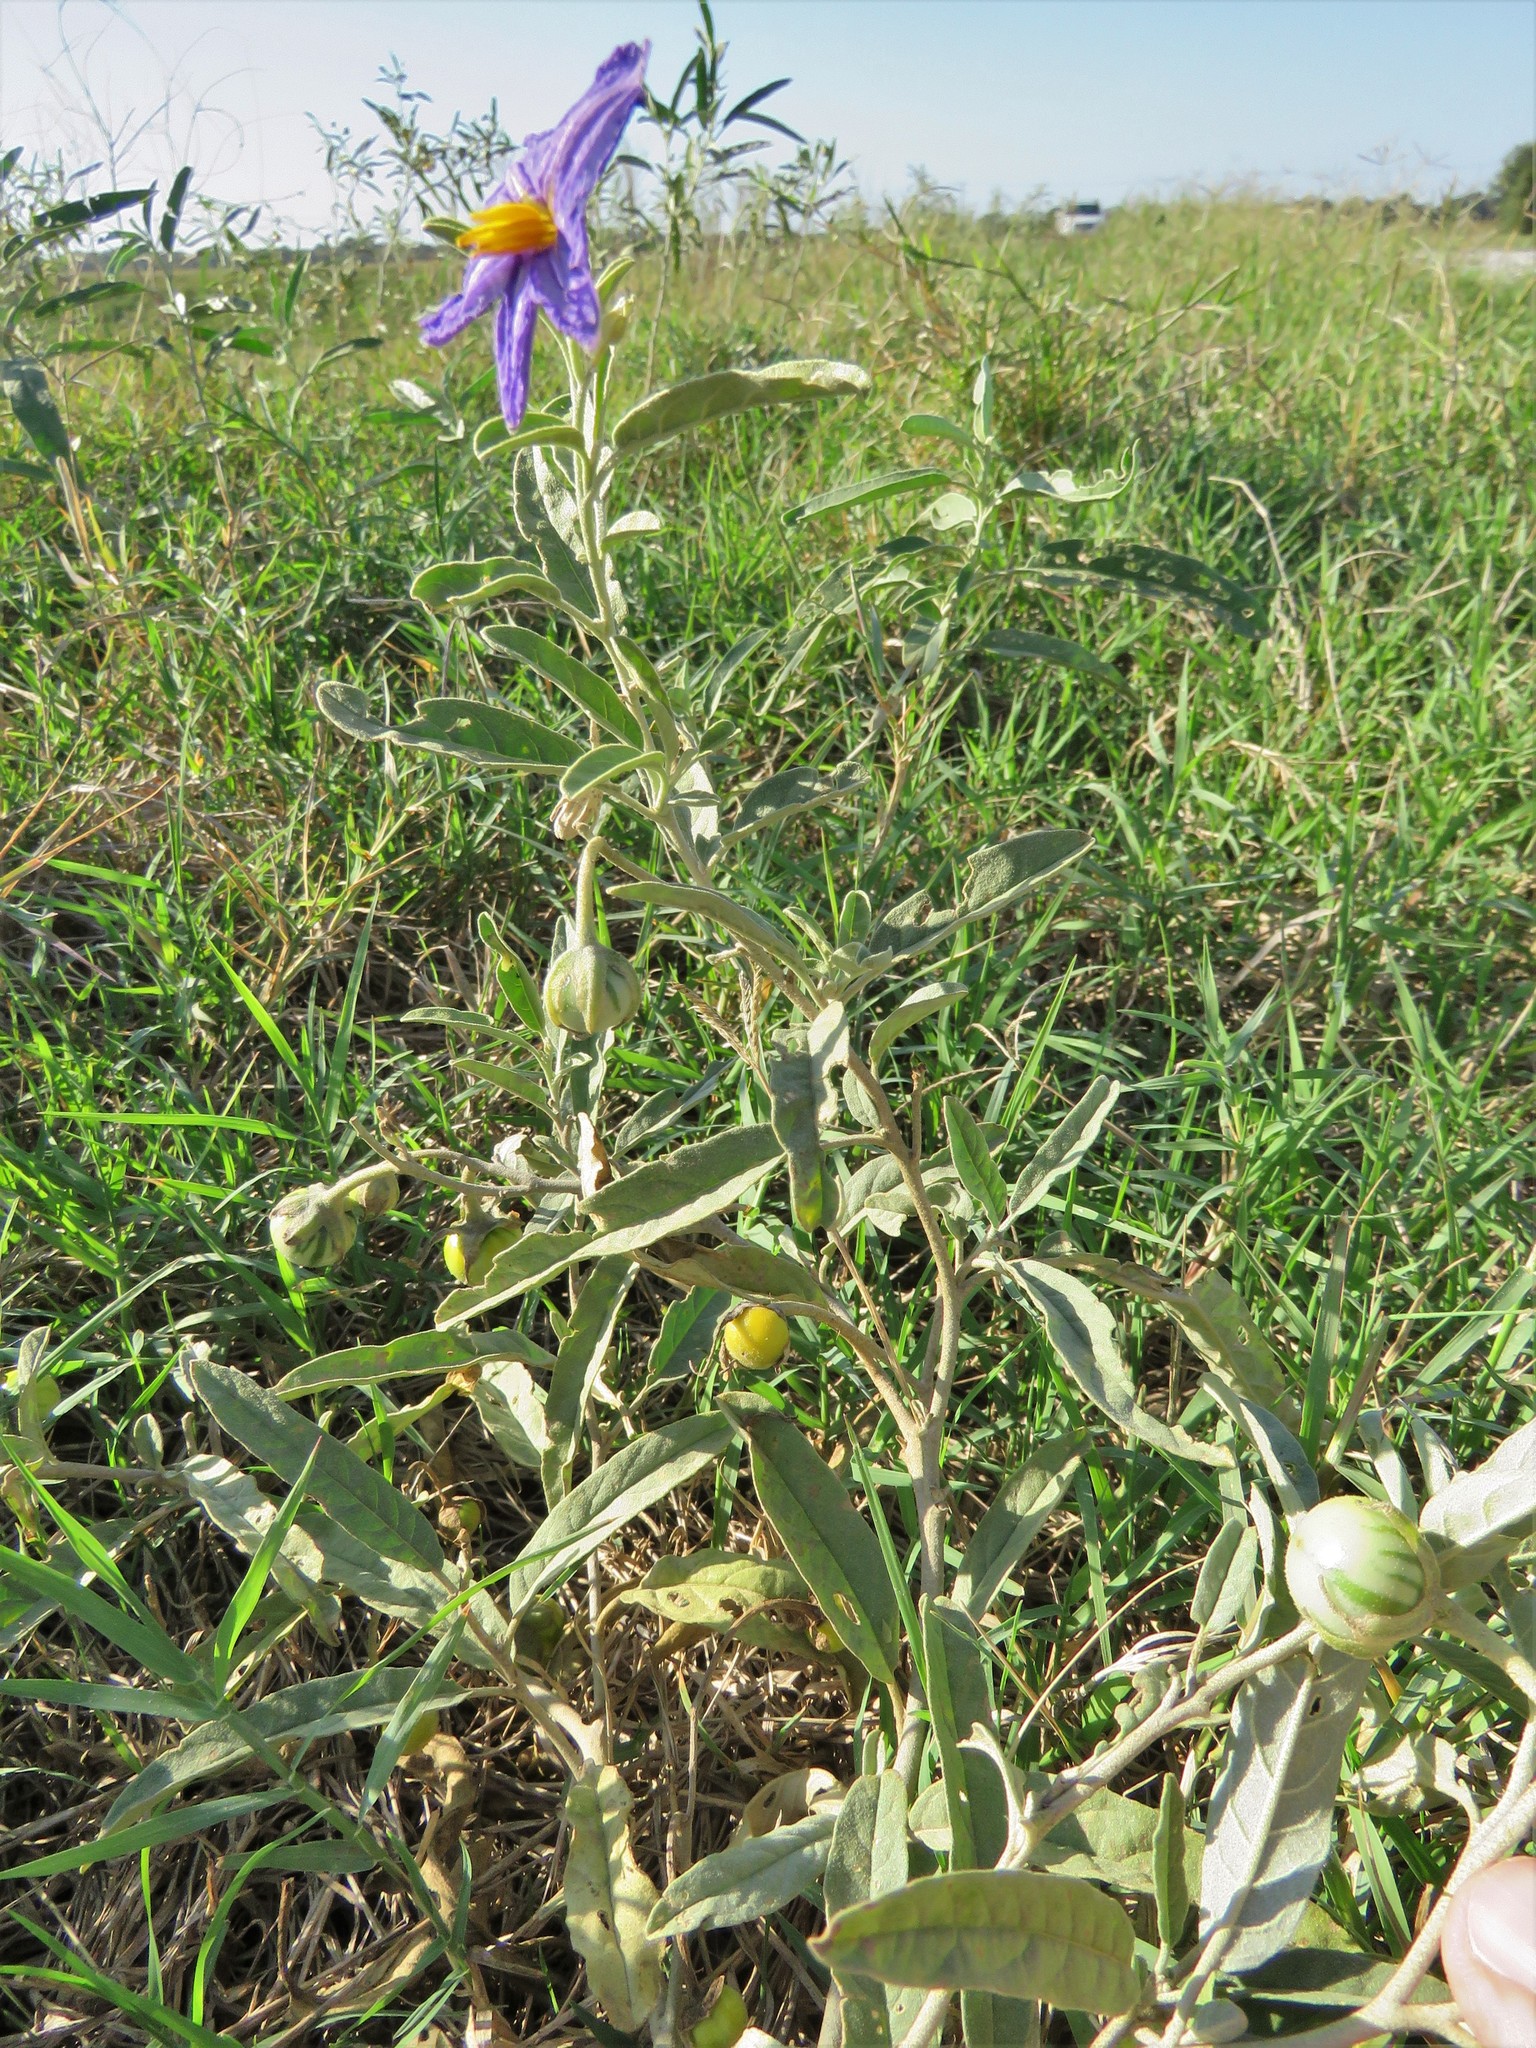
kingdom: Plantae
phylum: Tracheophyta
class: Magnoliopsida
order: Solanales
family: Solanaceae
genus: Solanum
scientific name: Solanum elaeagnifolium
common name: Silverleaf nightshade
